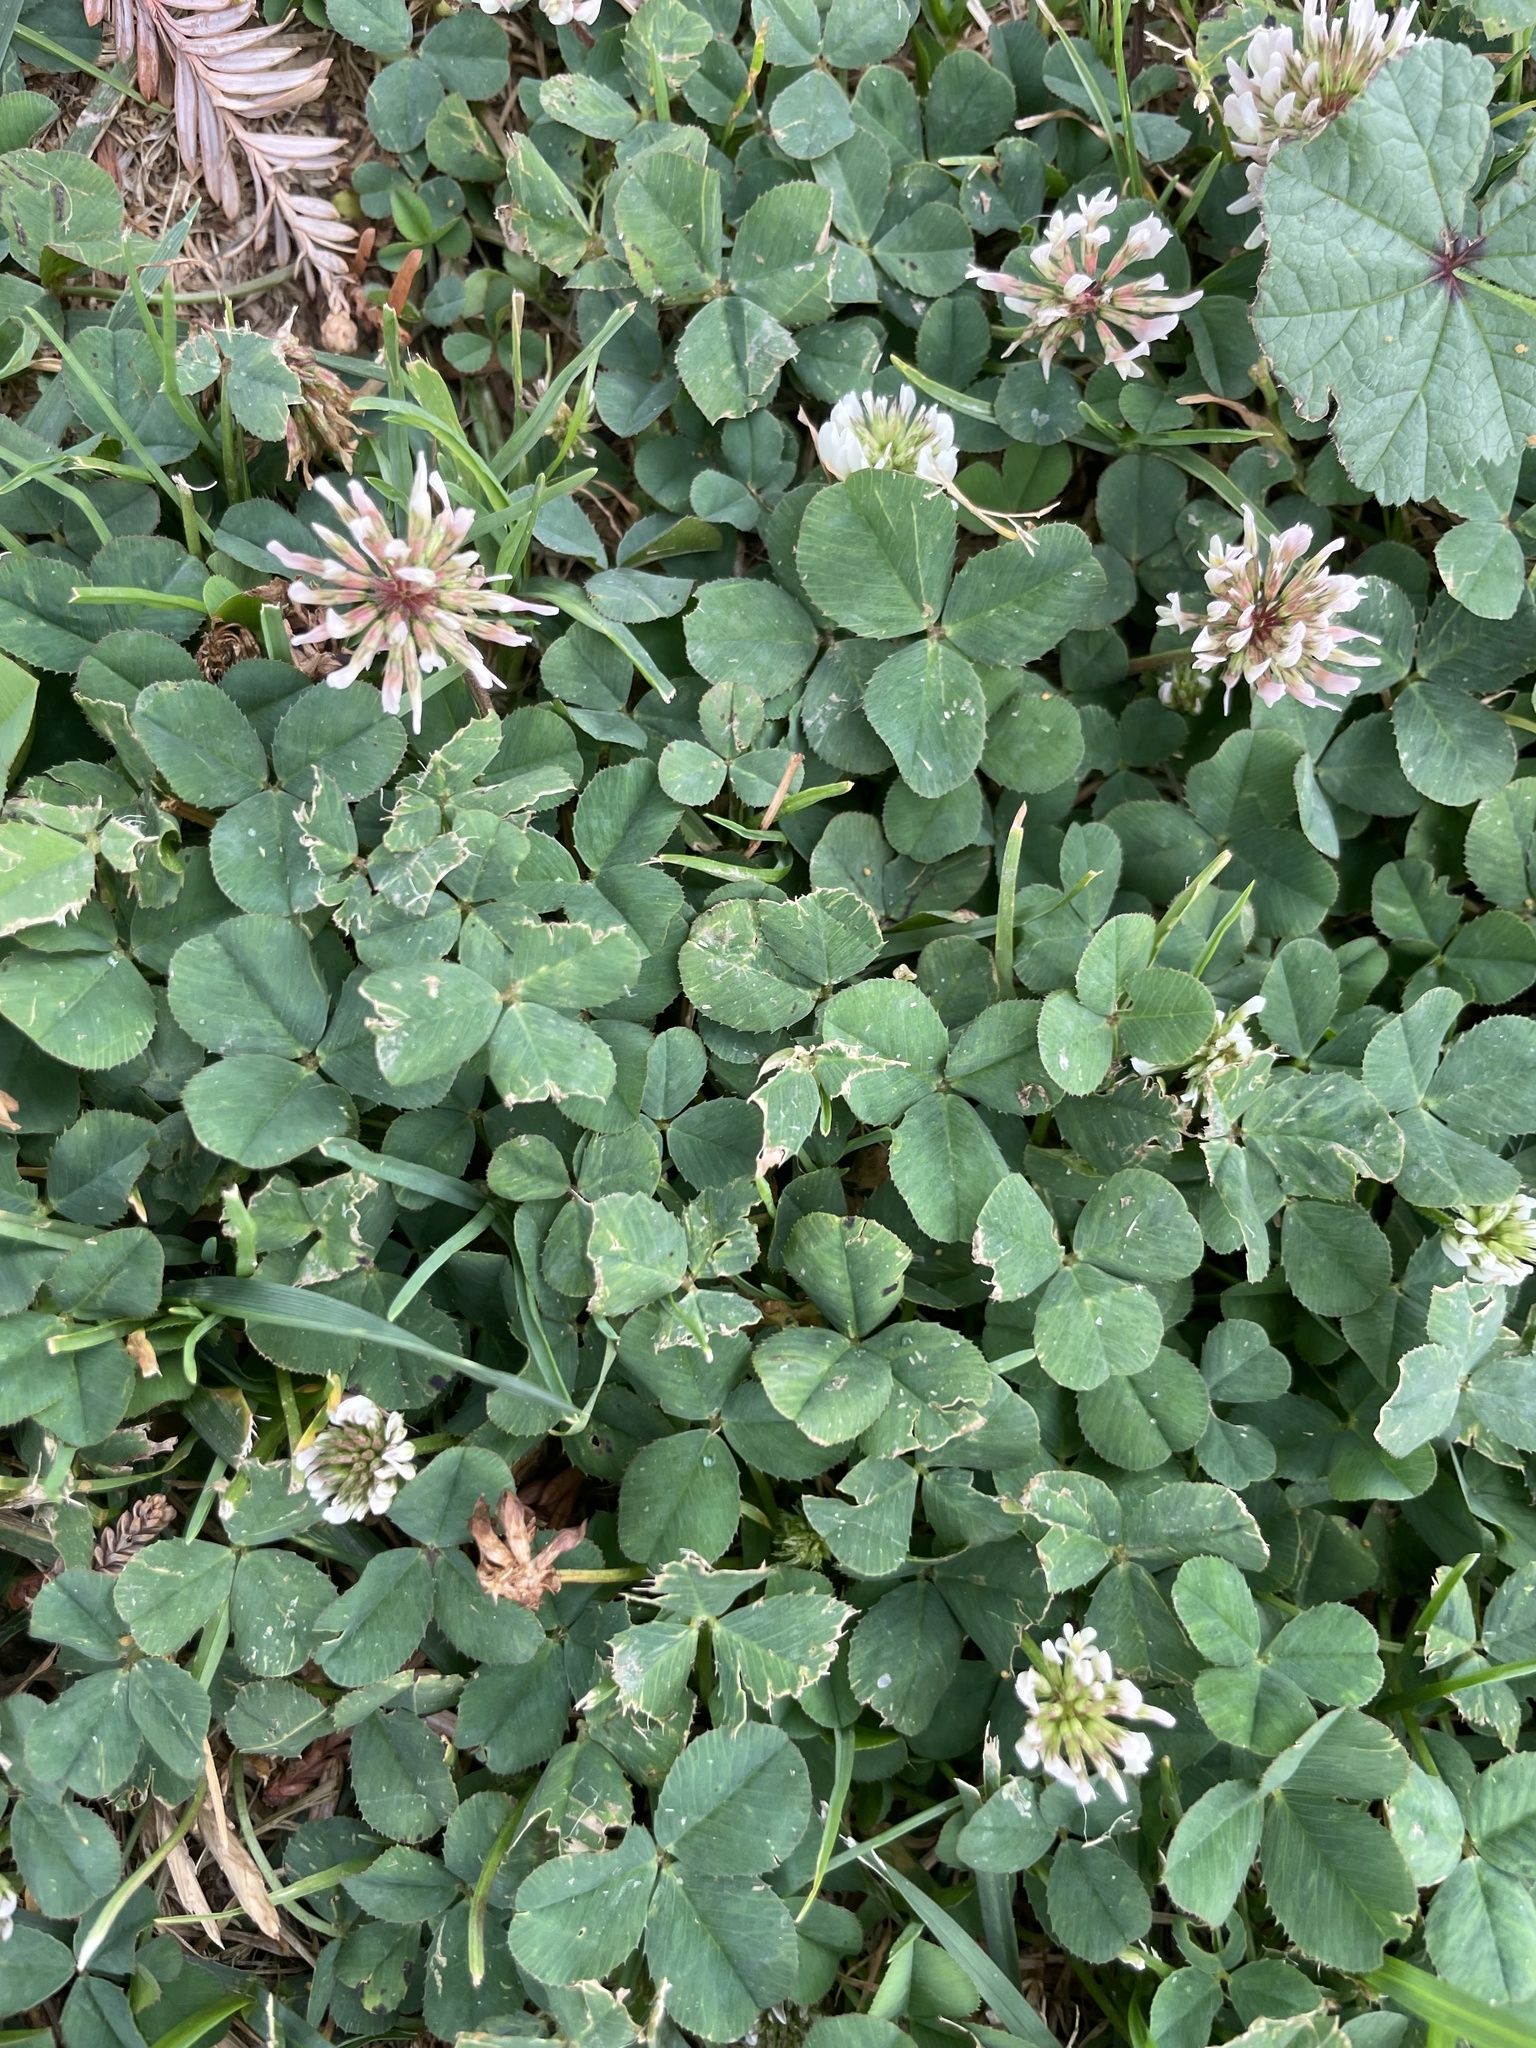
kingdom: Plantae
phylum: Tracheophyta
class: Magnoliopsida
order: Fabales
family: Fabaceae
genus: Trifolium
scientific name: Trifolium repens
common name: White clover
